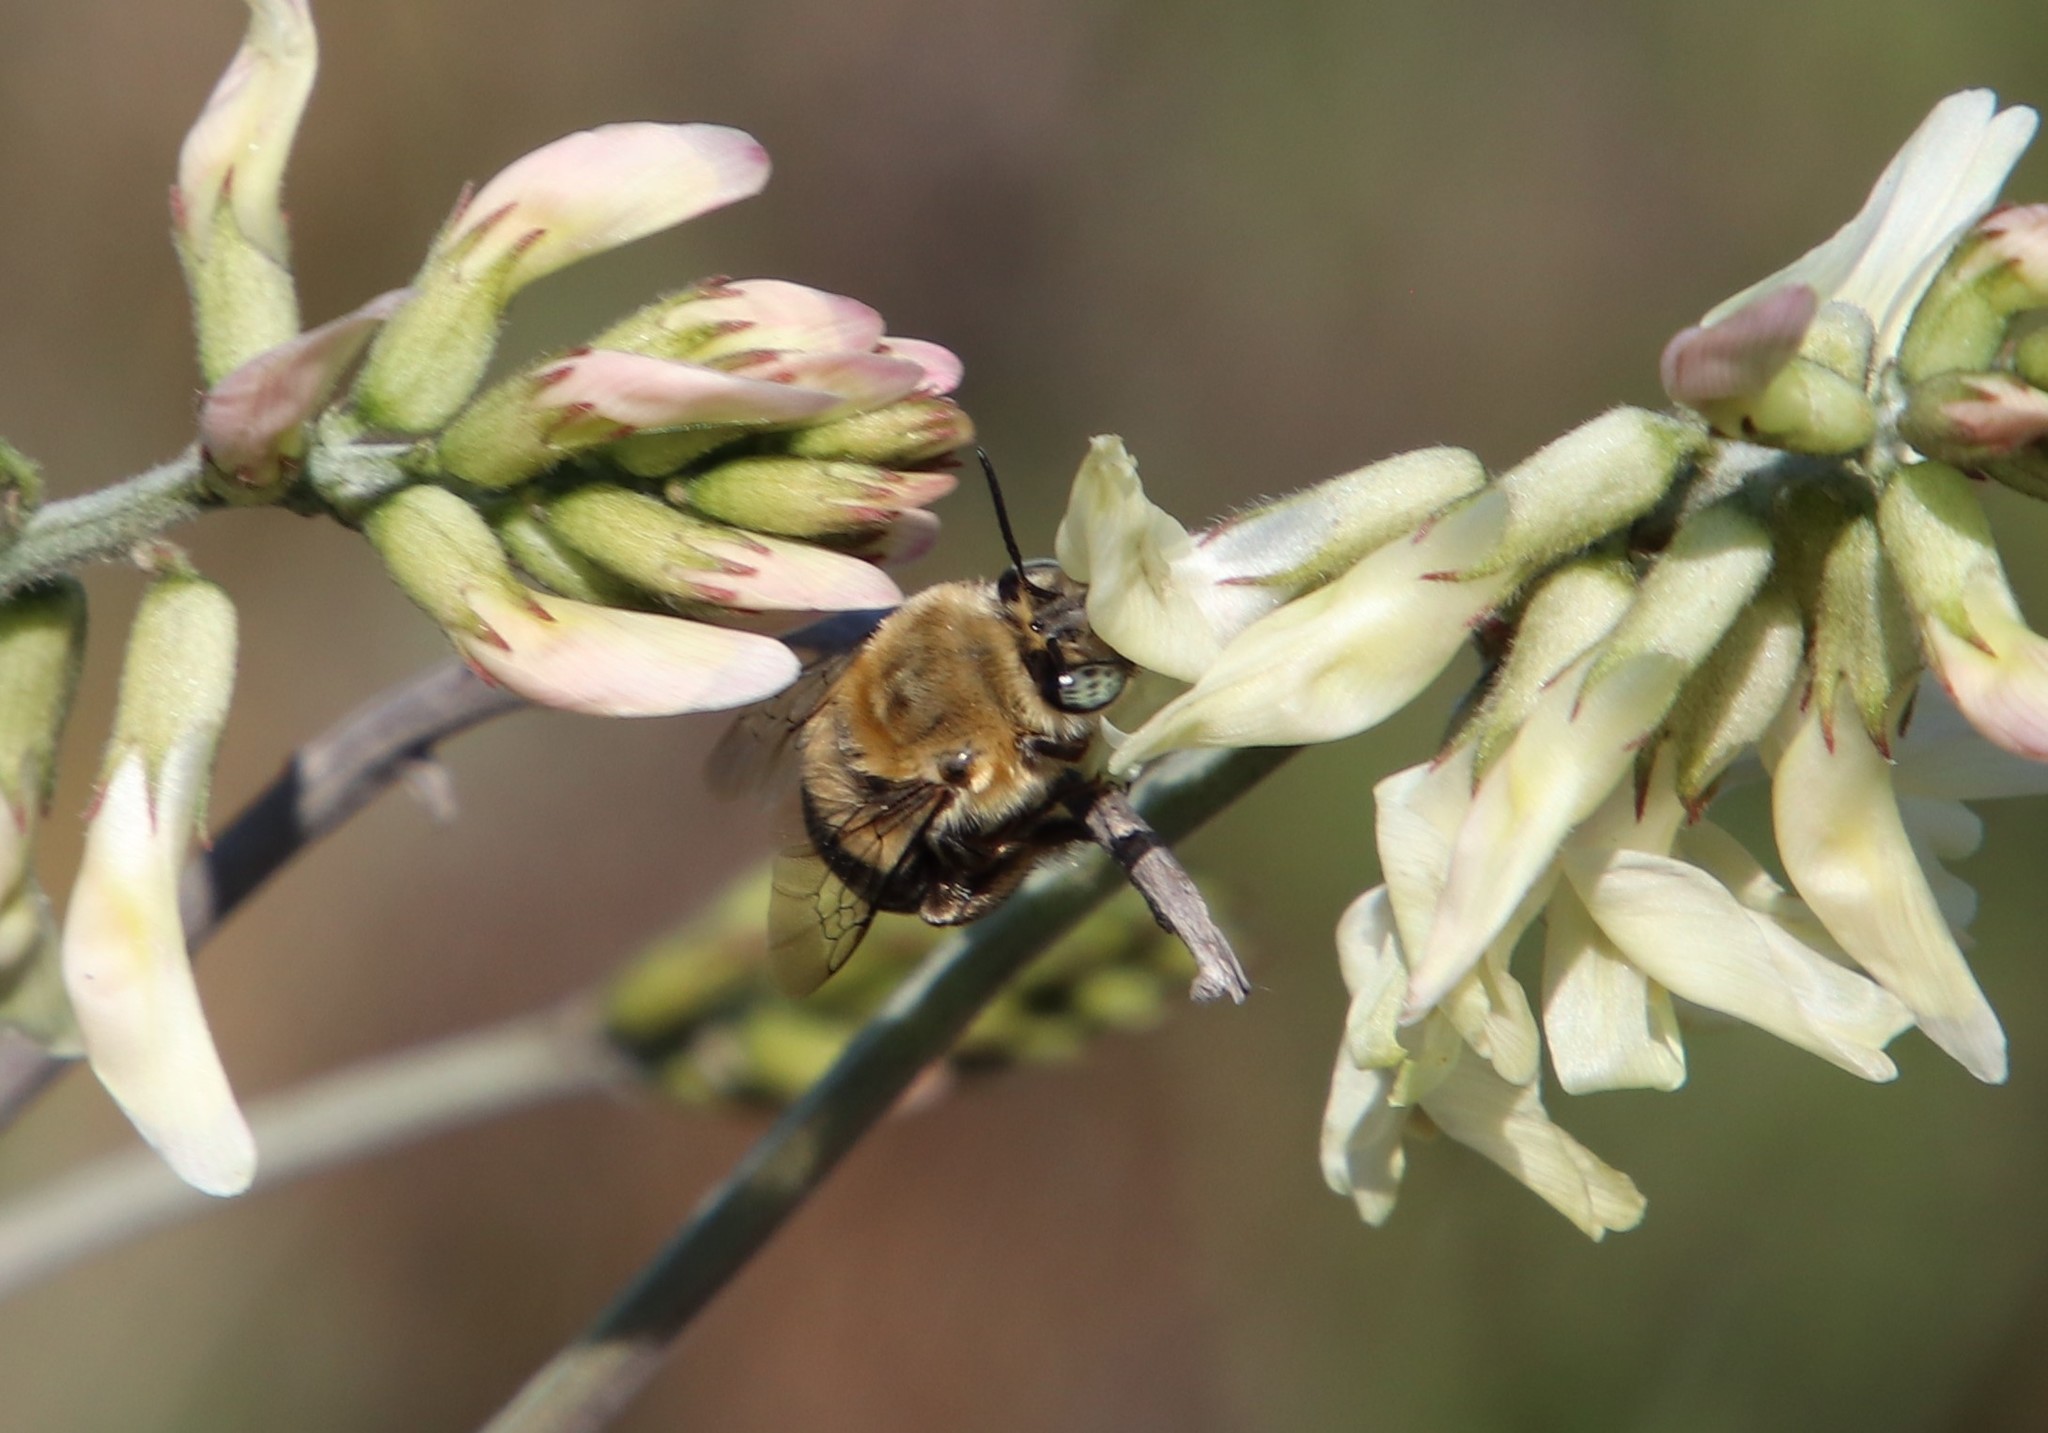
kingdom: Animalia
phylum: Arthropoda
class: Insecta
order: Hymenoptera
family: Apidae
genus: Habropoda
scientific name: Habropoda tristissima
